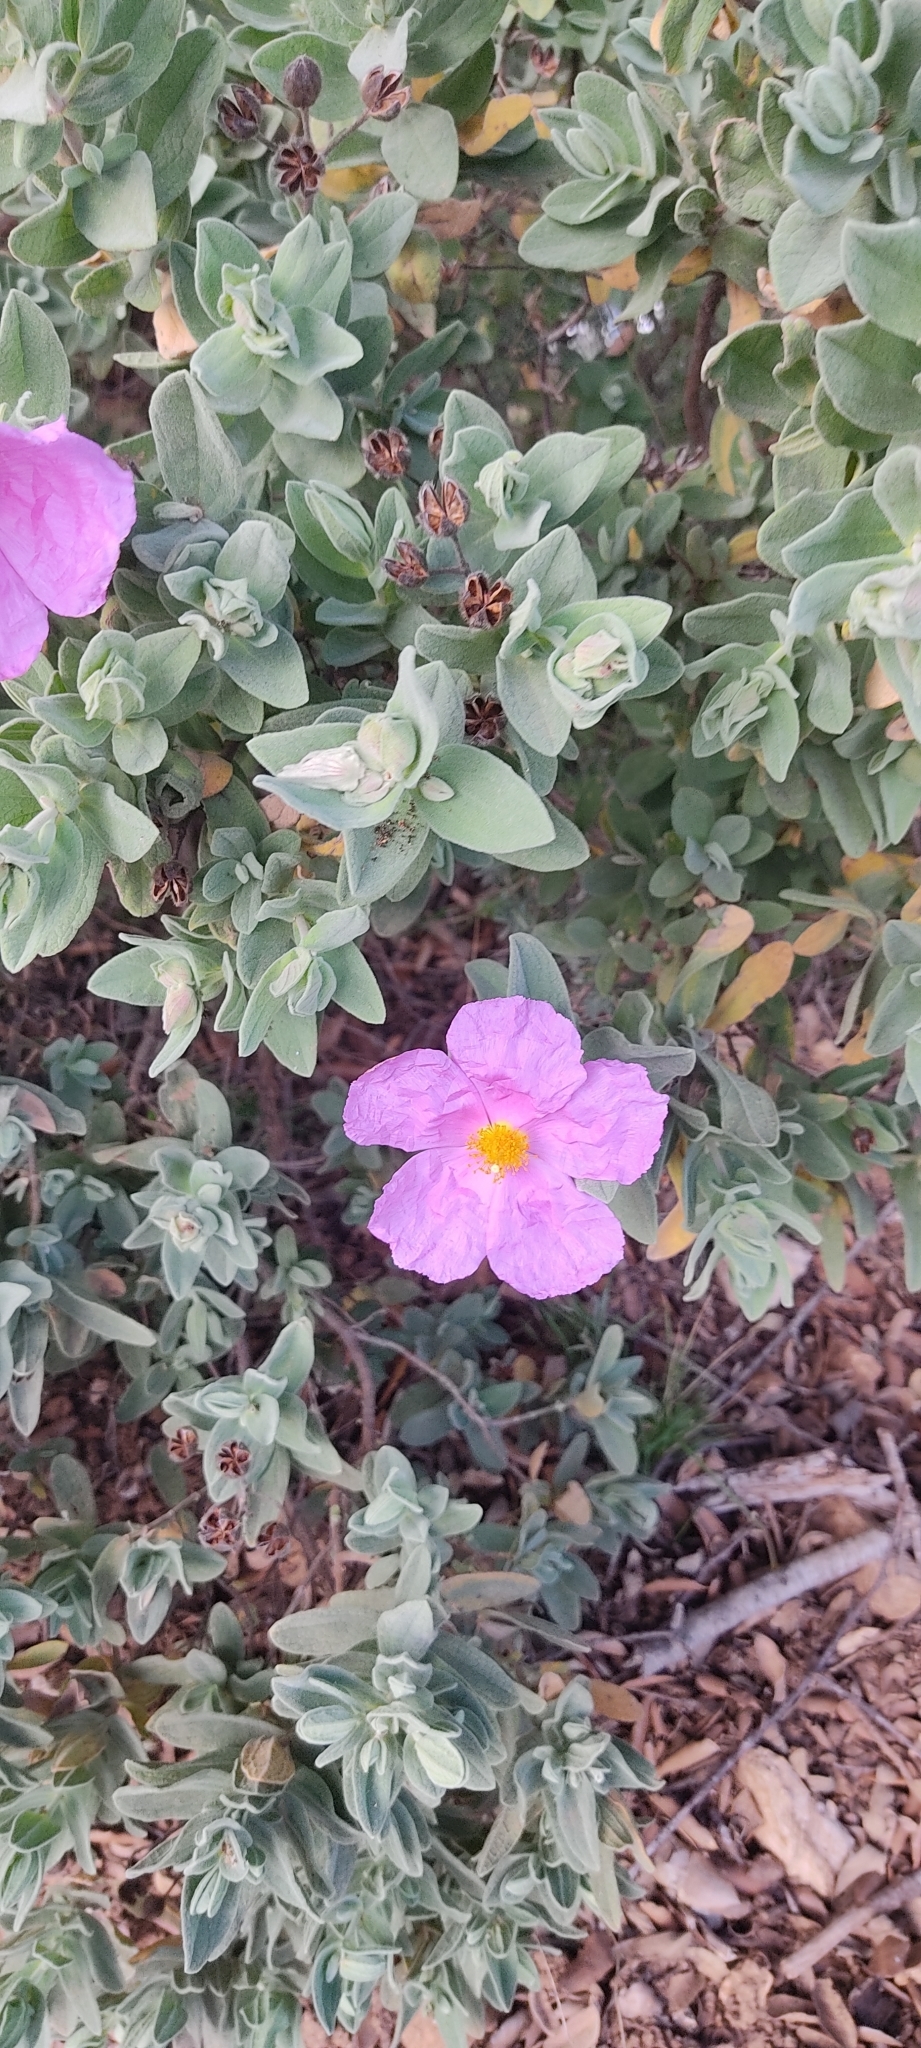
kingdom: Plantae
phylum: Tracheophyta
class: Magnoliopsida
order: Malvales
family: Cistaceae
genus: Cistus
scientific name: Cistus albidus
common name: White-leaf rock-rose
